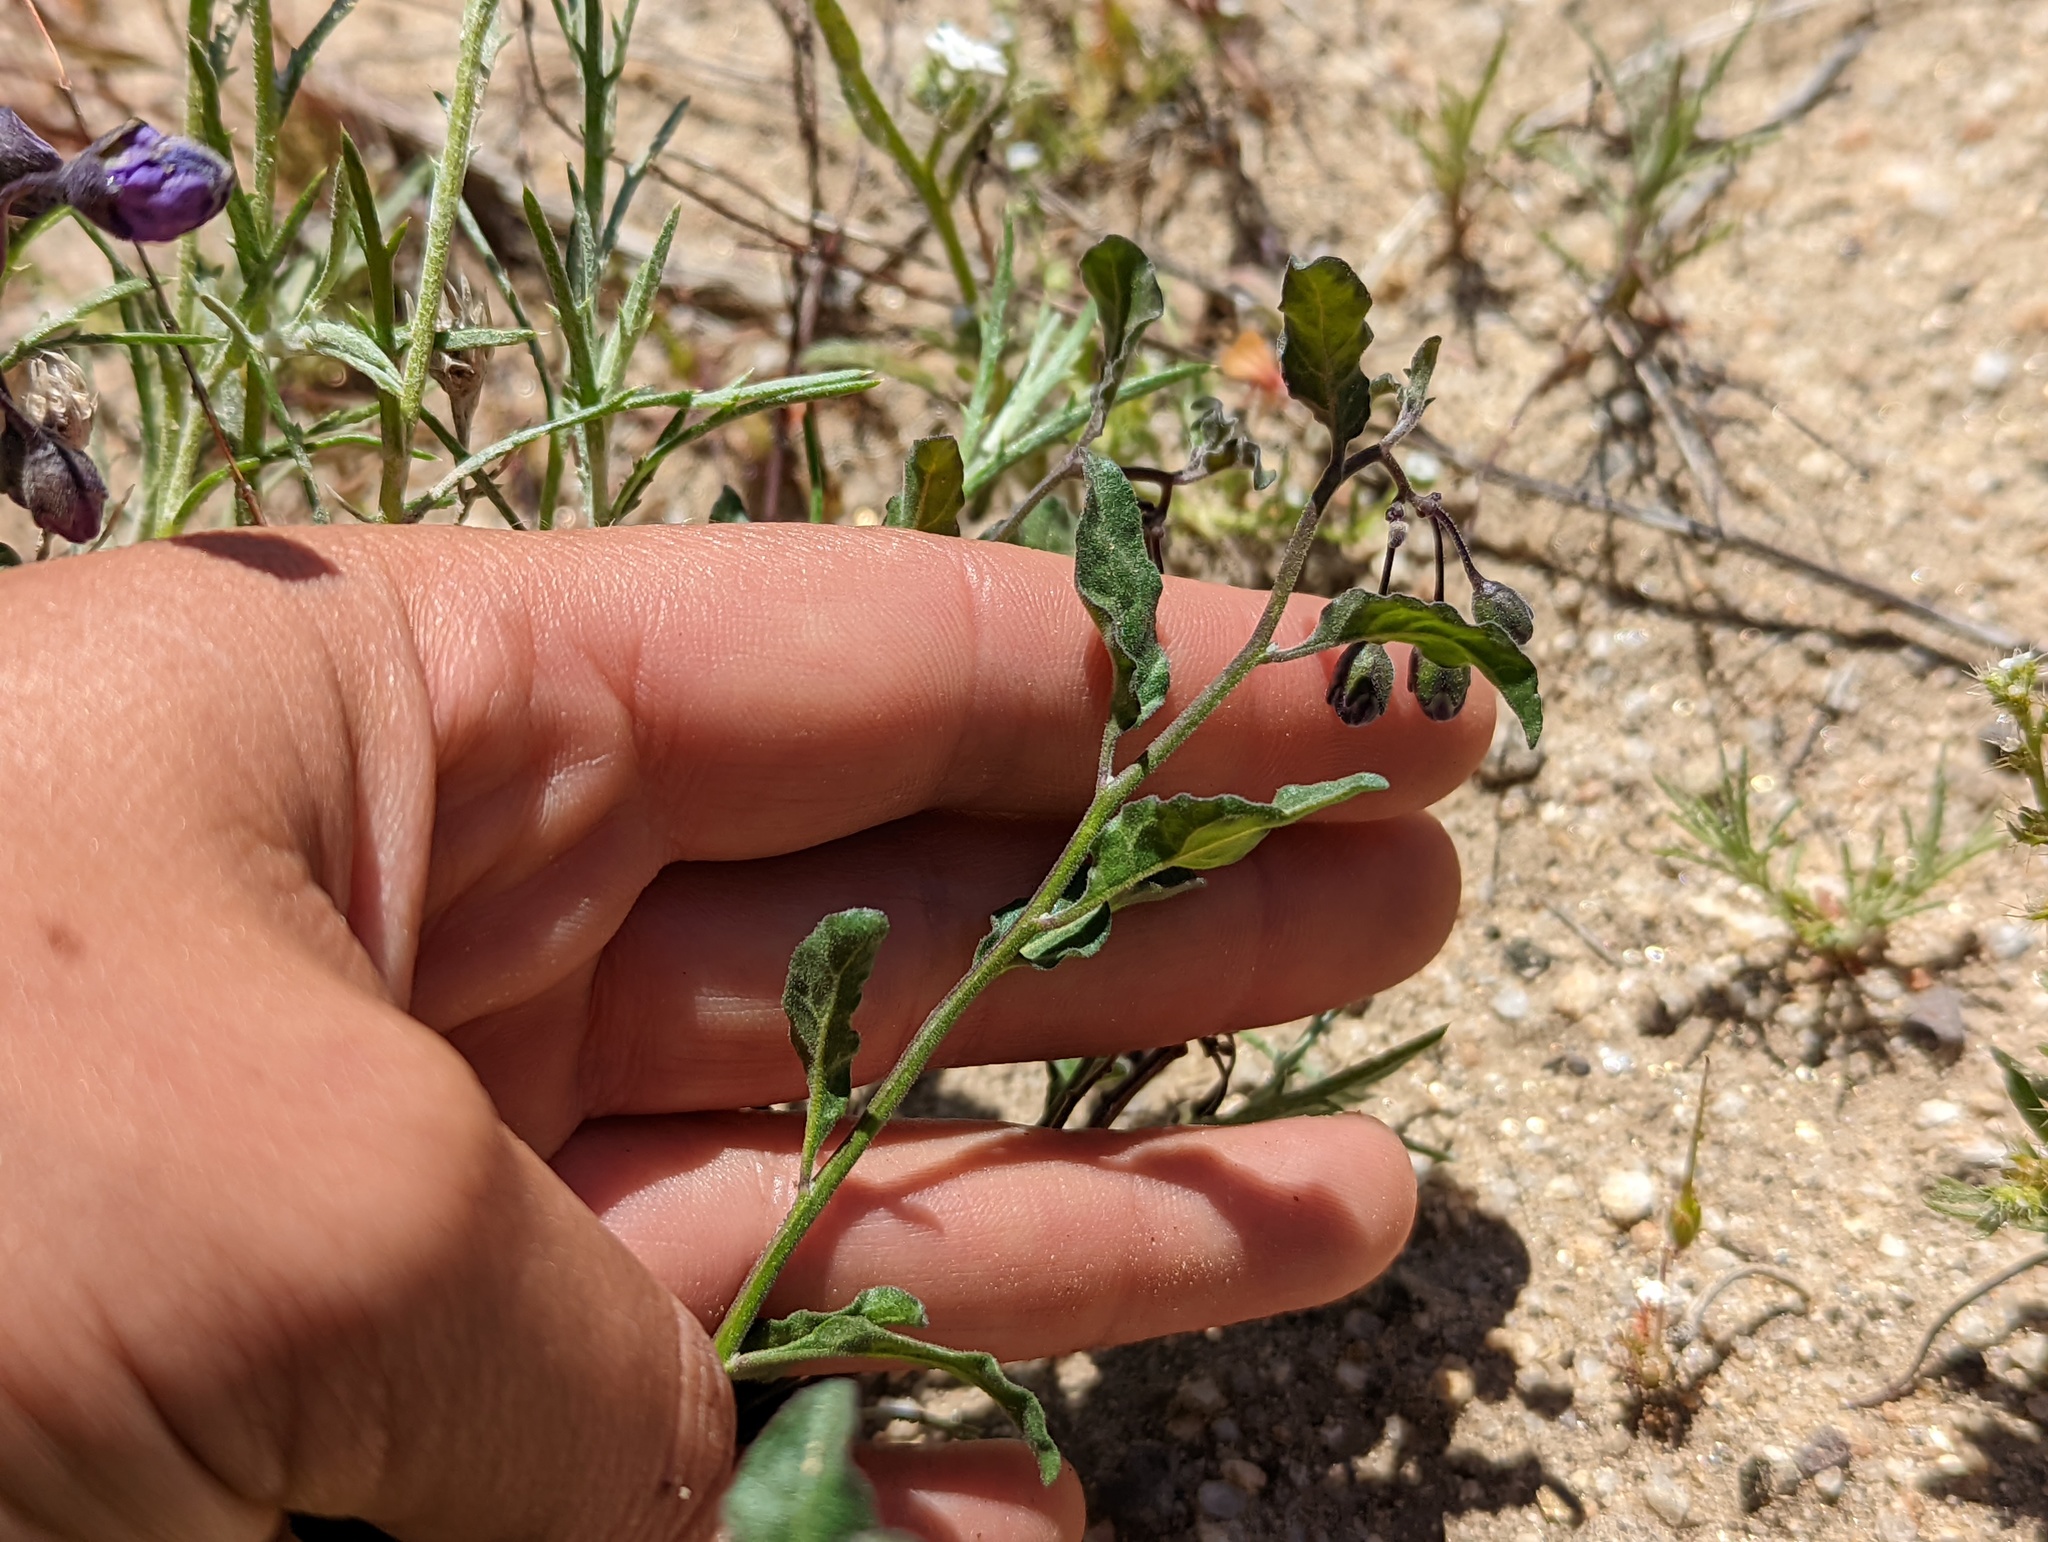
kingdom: Plantae
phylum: Tracheophyta
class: Magnoliopsida
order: Solanales
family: Solanaceae
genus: Solanum
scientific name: Solanum umbelliferum
